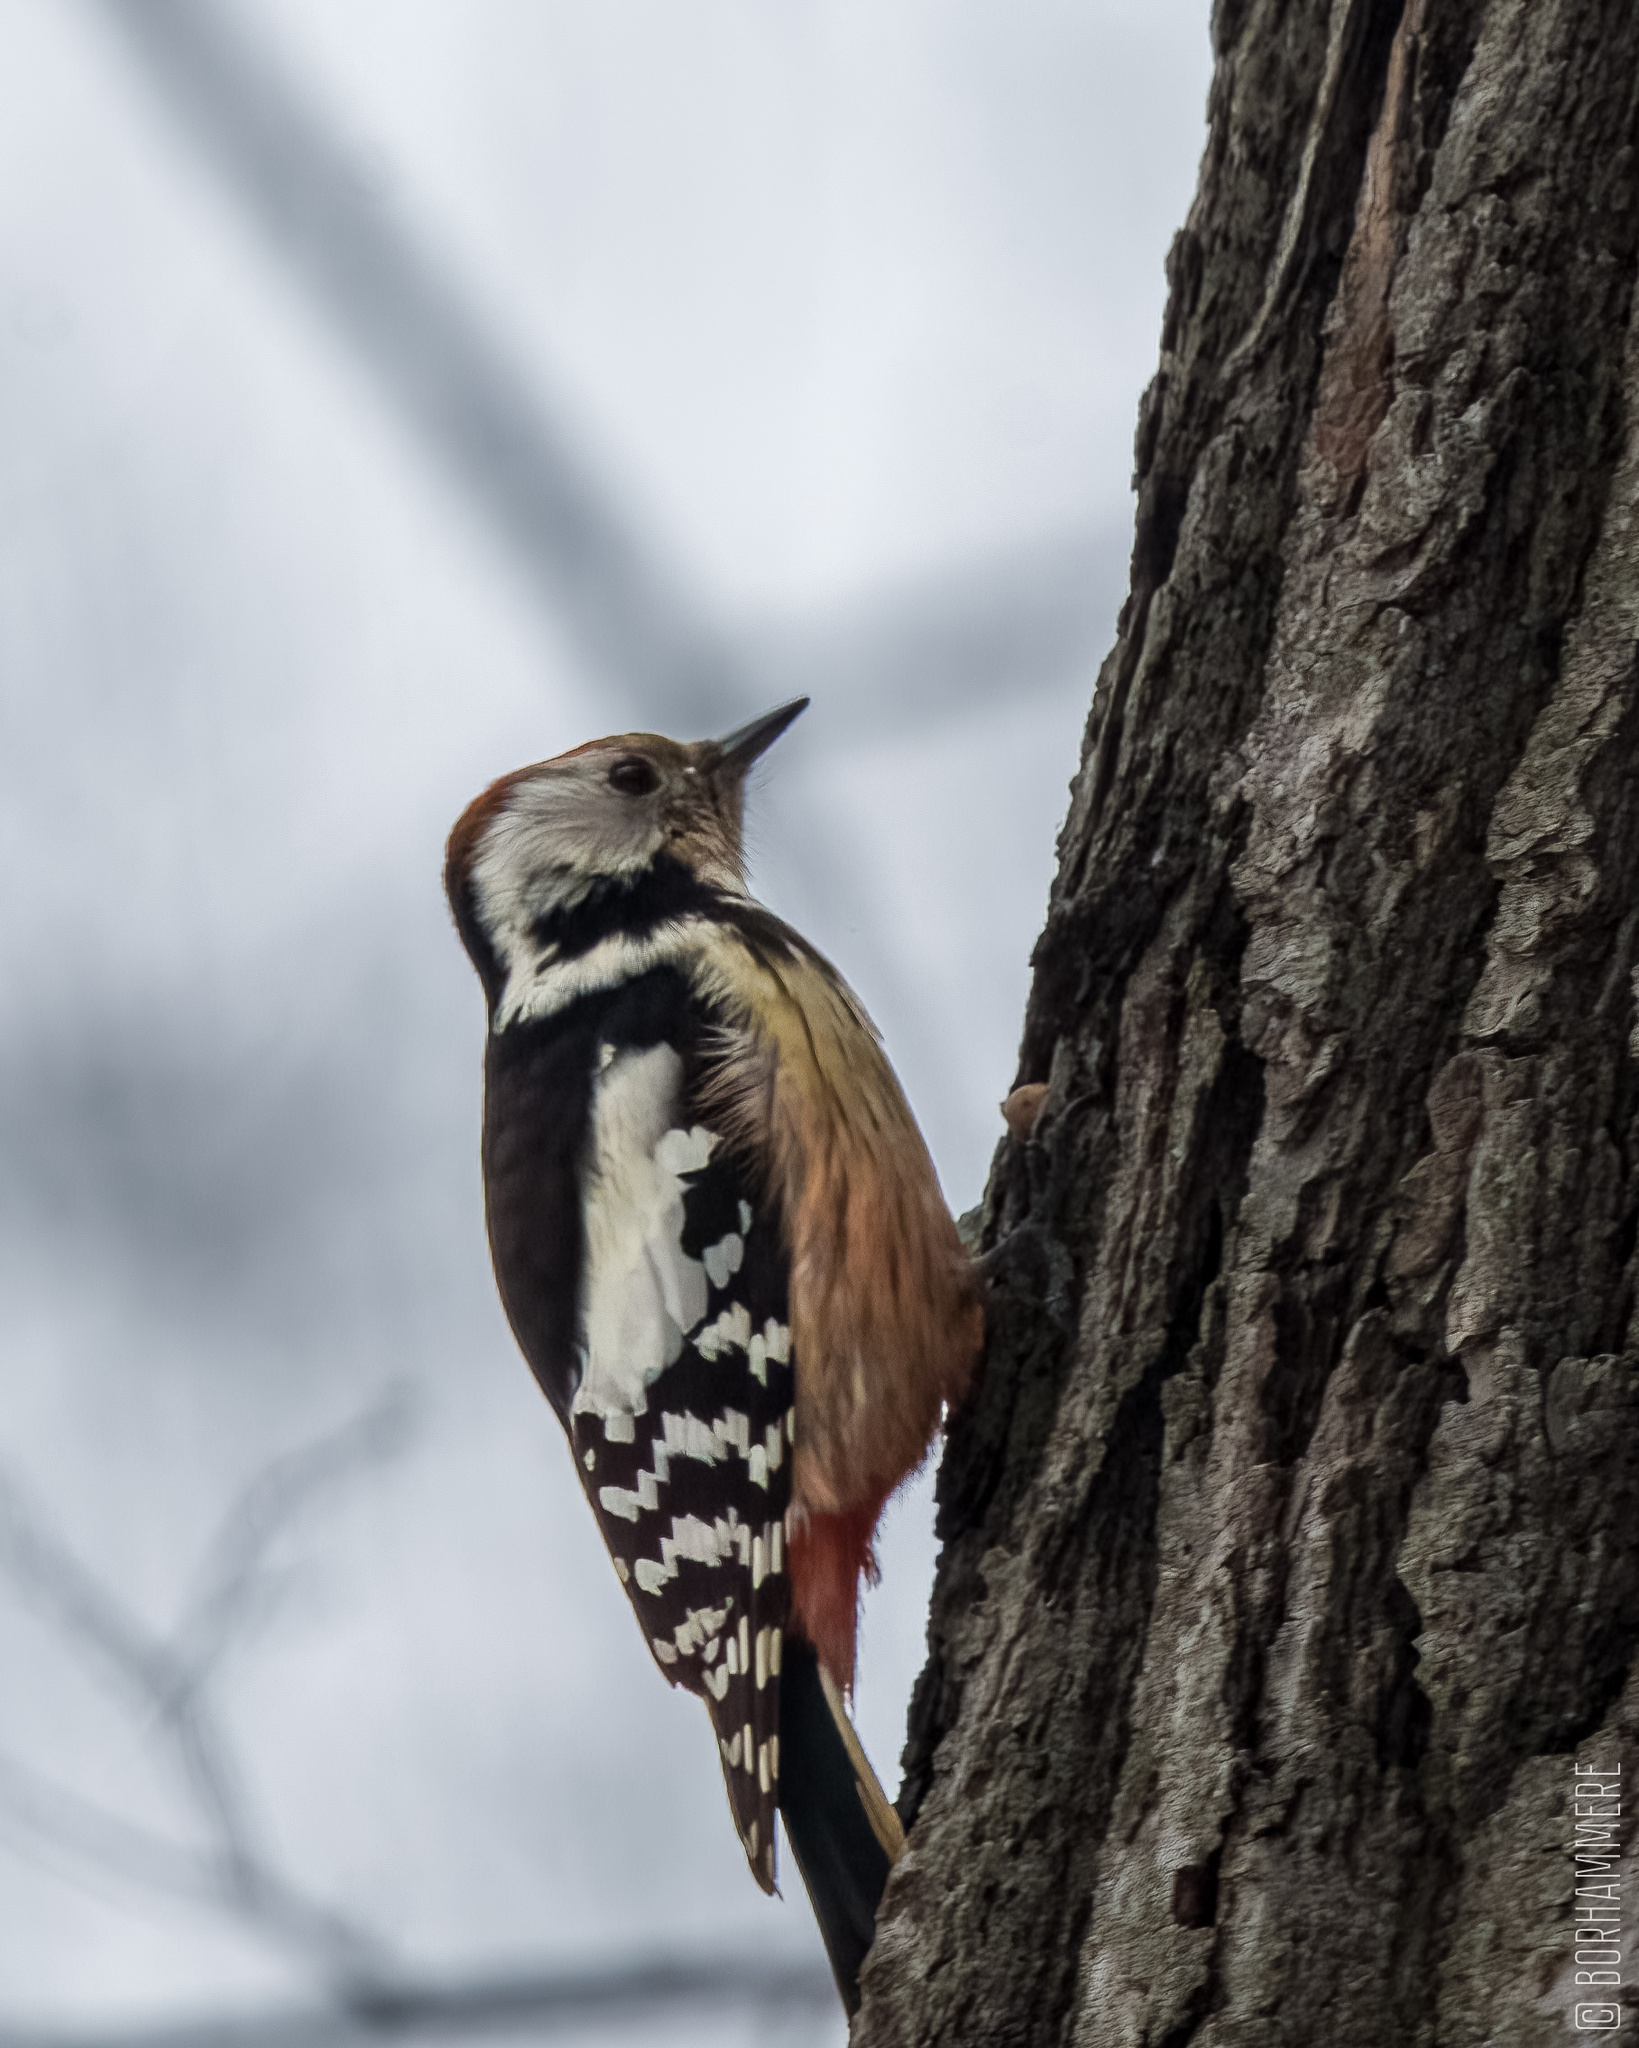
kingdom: Animalia
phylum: Chordata
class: Aves
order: Piciformes
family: Picidae
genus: Dendrocoptes
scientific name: Dendrocoptes medius
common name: Middle spotted woodpecker
